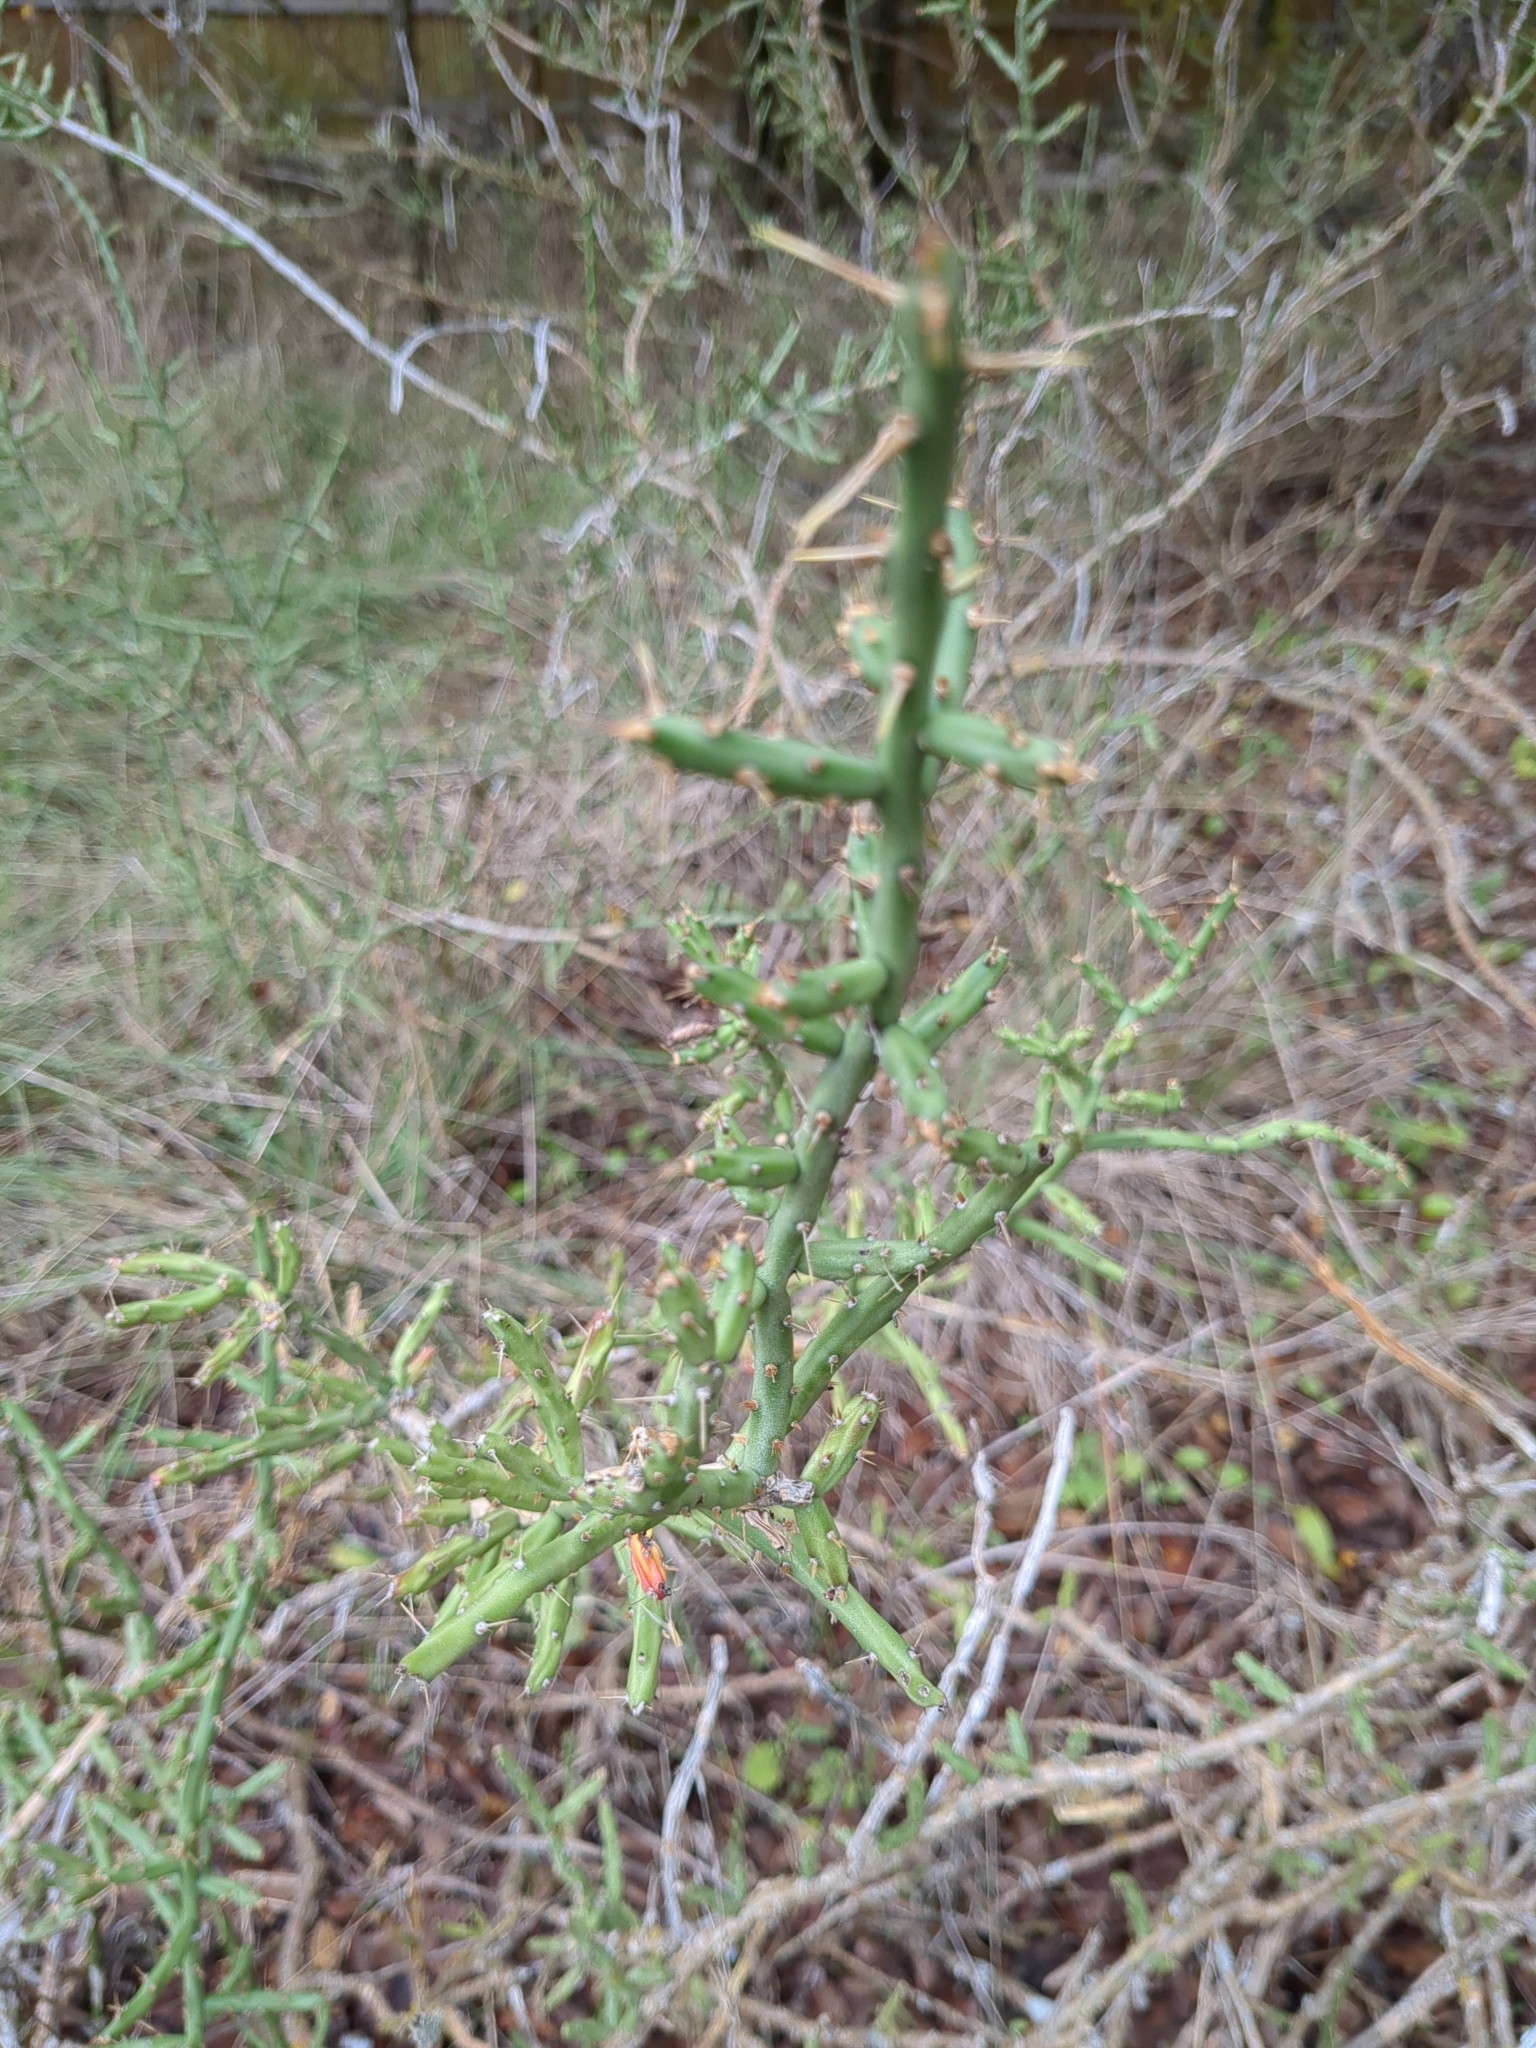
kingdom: Plantae
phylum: Tracheophyta
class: Magnoliopsida
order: Caryophyllales
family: Cactaceae
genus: Cylindropuntia
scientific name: Cylindropuntia leptocaulis
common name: Christmas cactus
